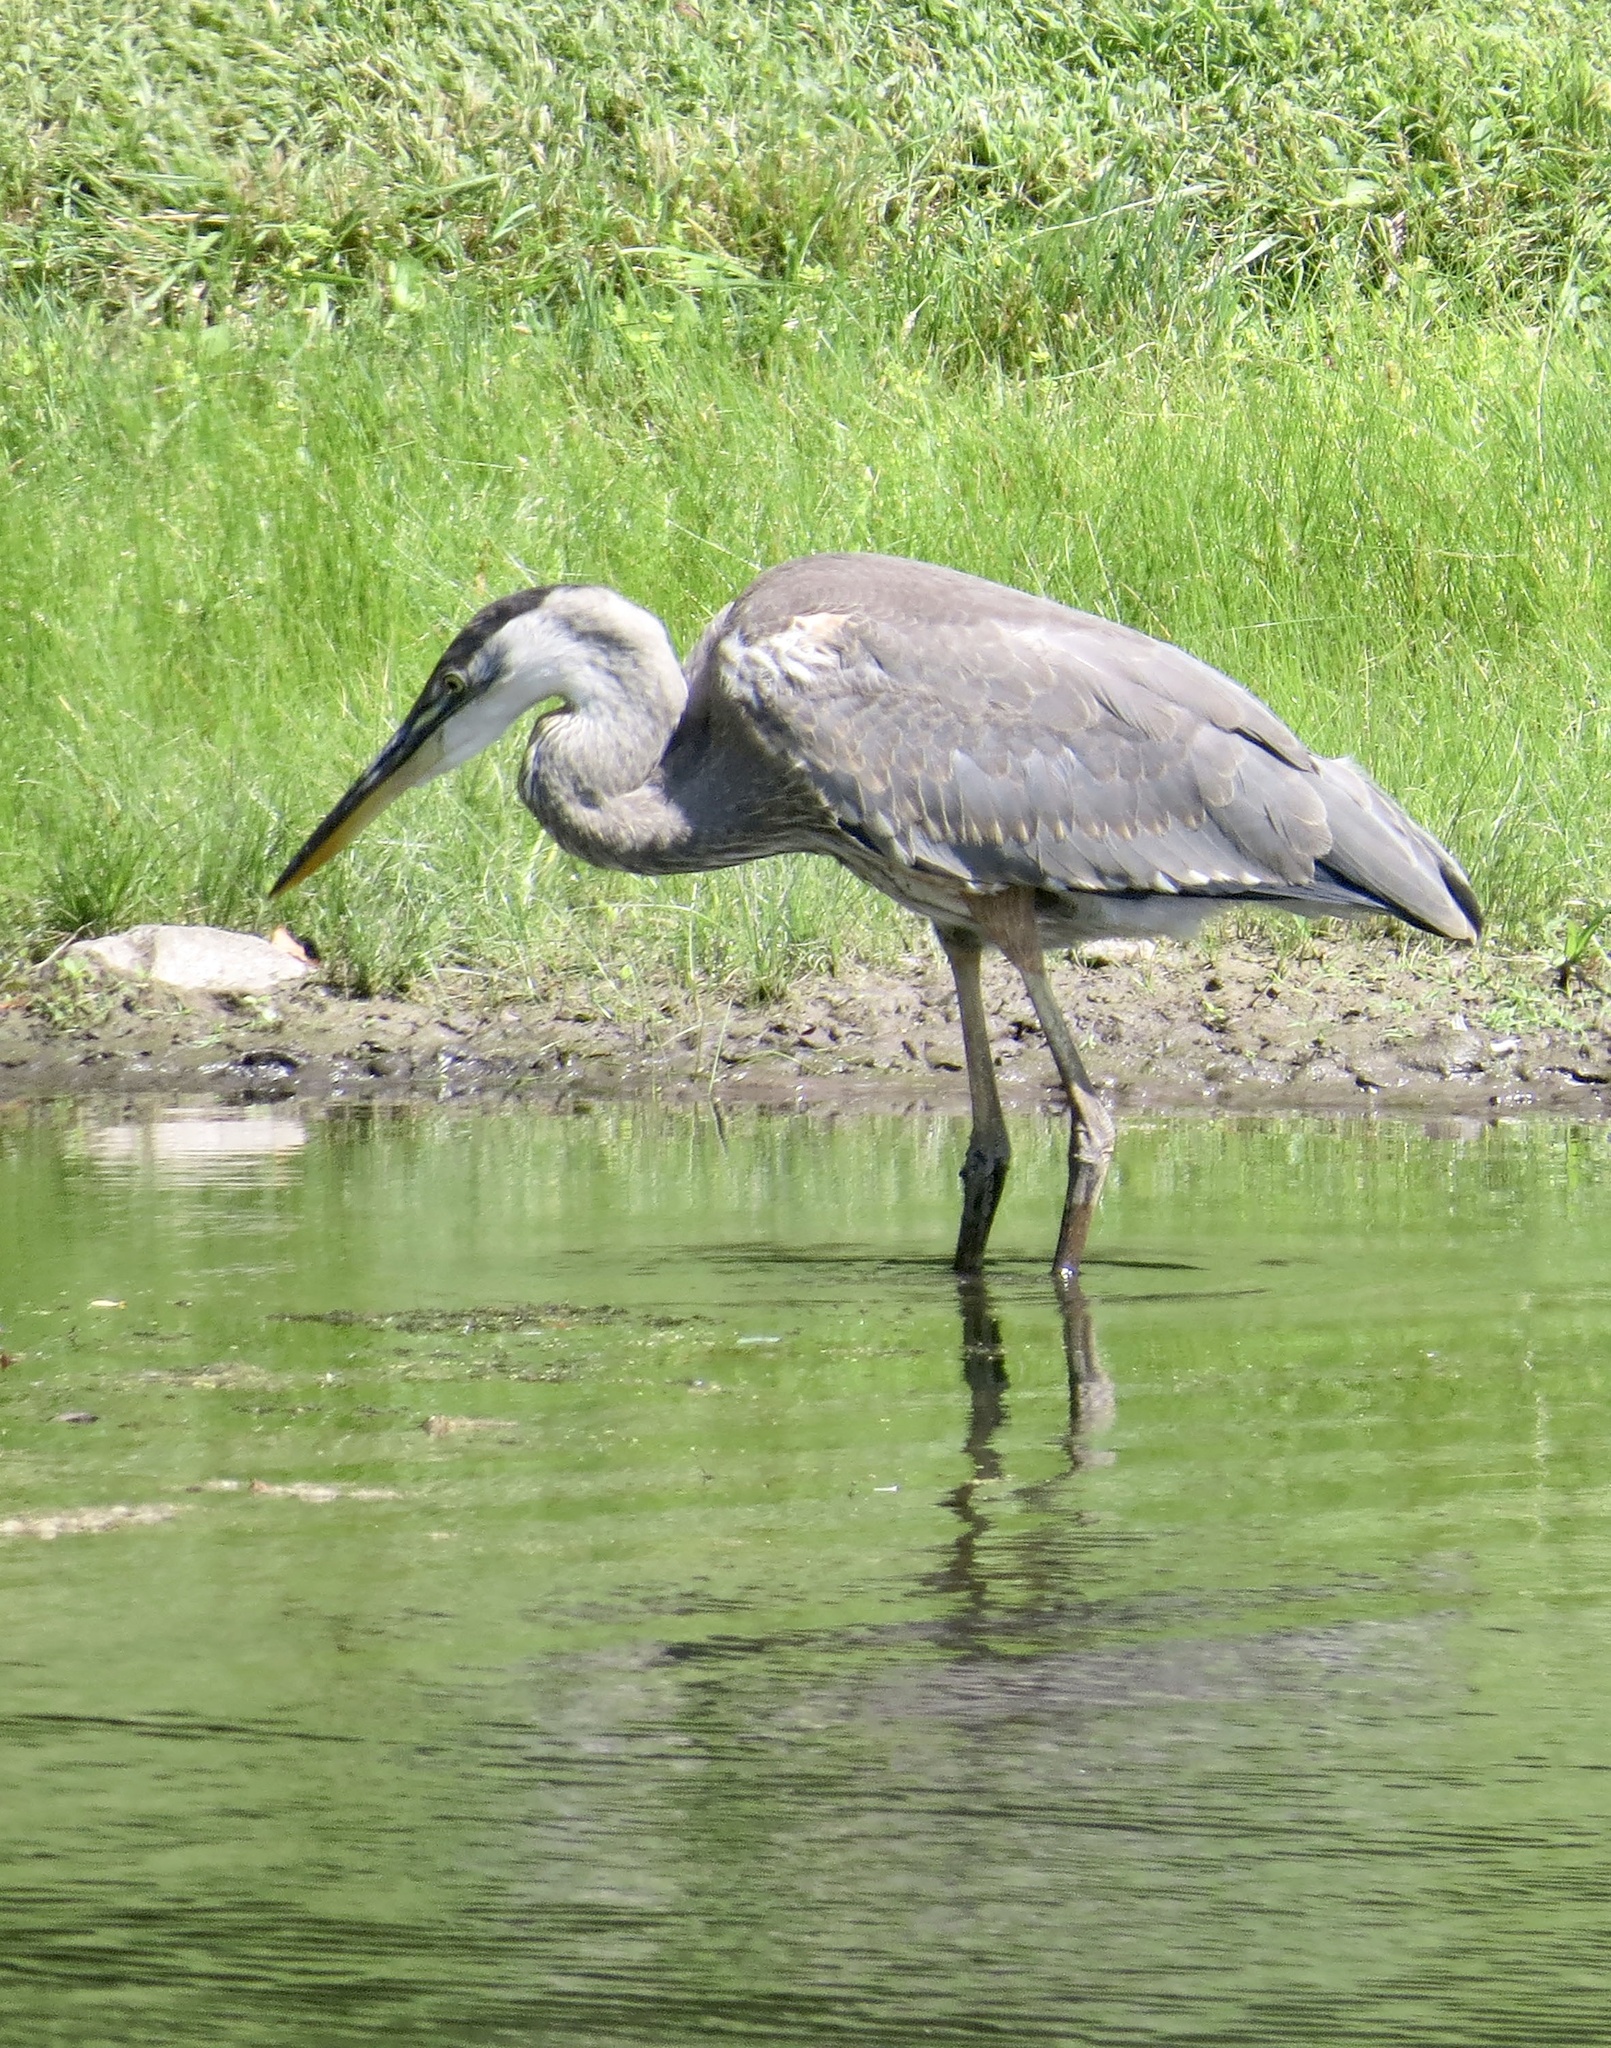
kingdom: Animalia
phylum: Chordata
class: Aves
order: Pelecaniformes
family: Ardeidae
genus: Ardea
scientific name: Ardea herodias
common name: Great blue heron
